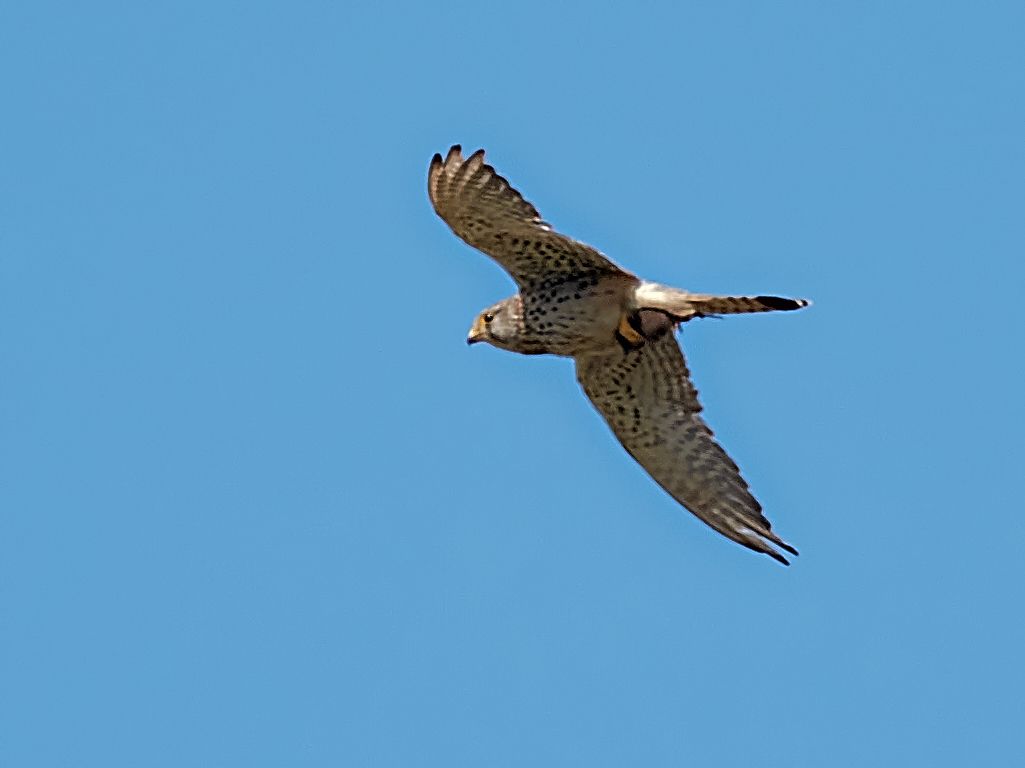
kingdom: Animalia
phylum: Chordata
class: Aves
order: Falconiformes
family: Falconidae
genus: Falco
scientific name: Falco tinnunculus
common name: Common kestrel
